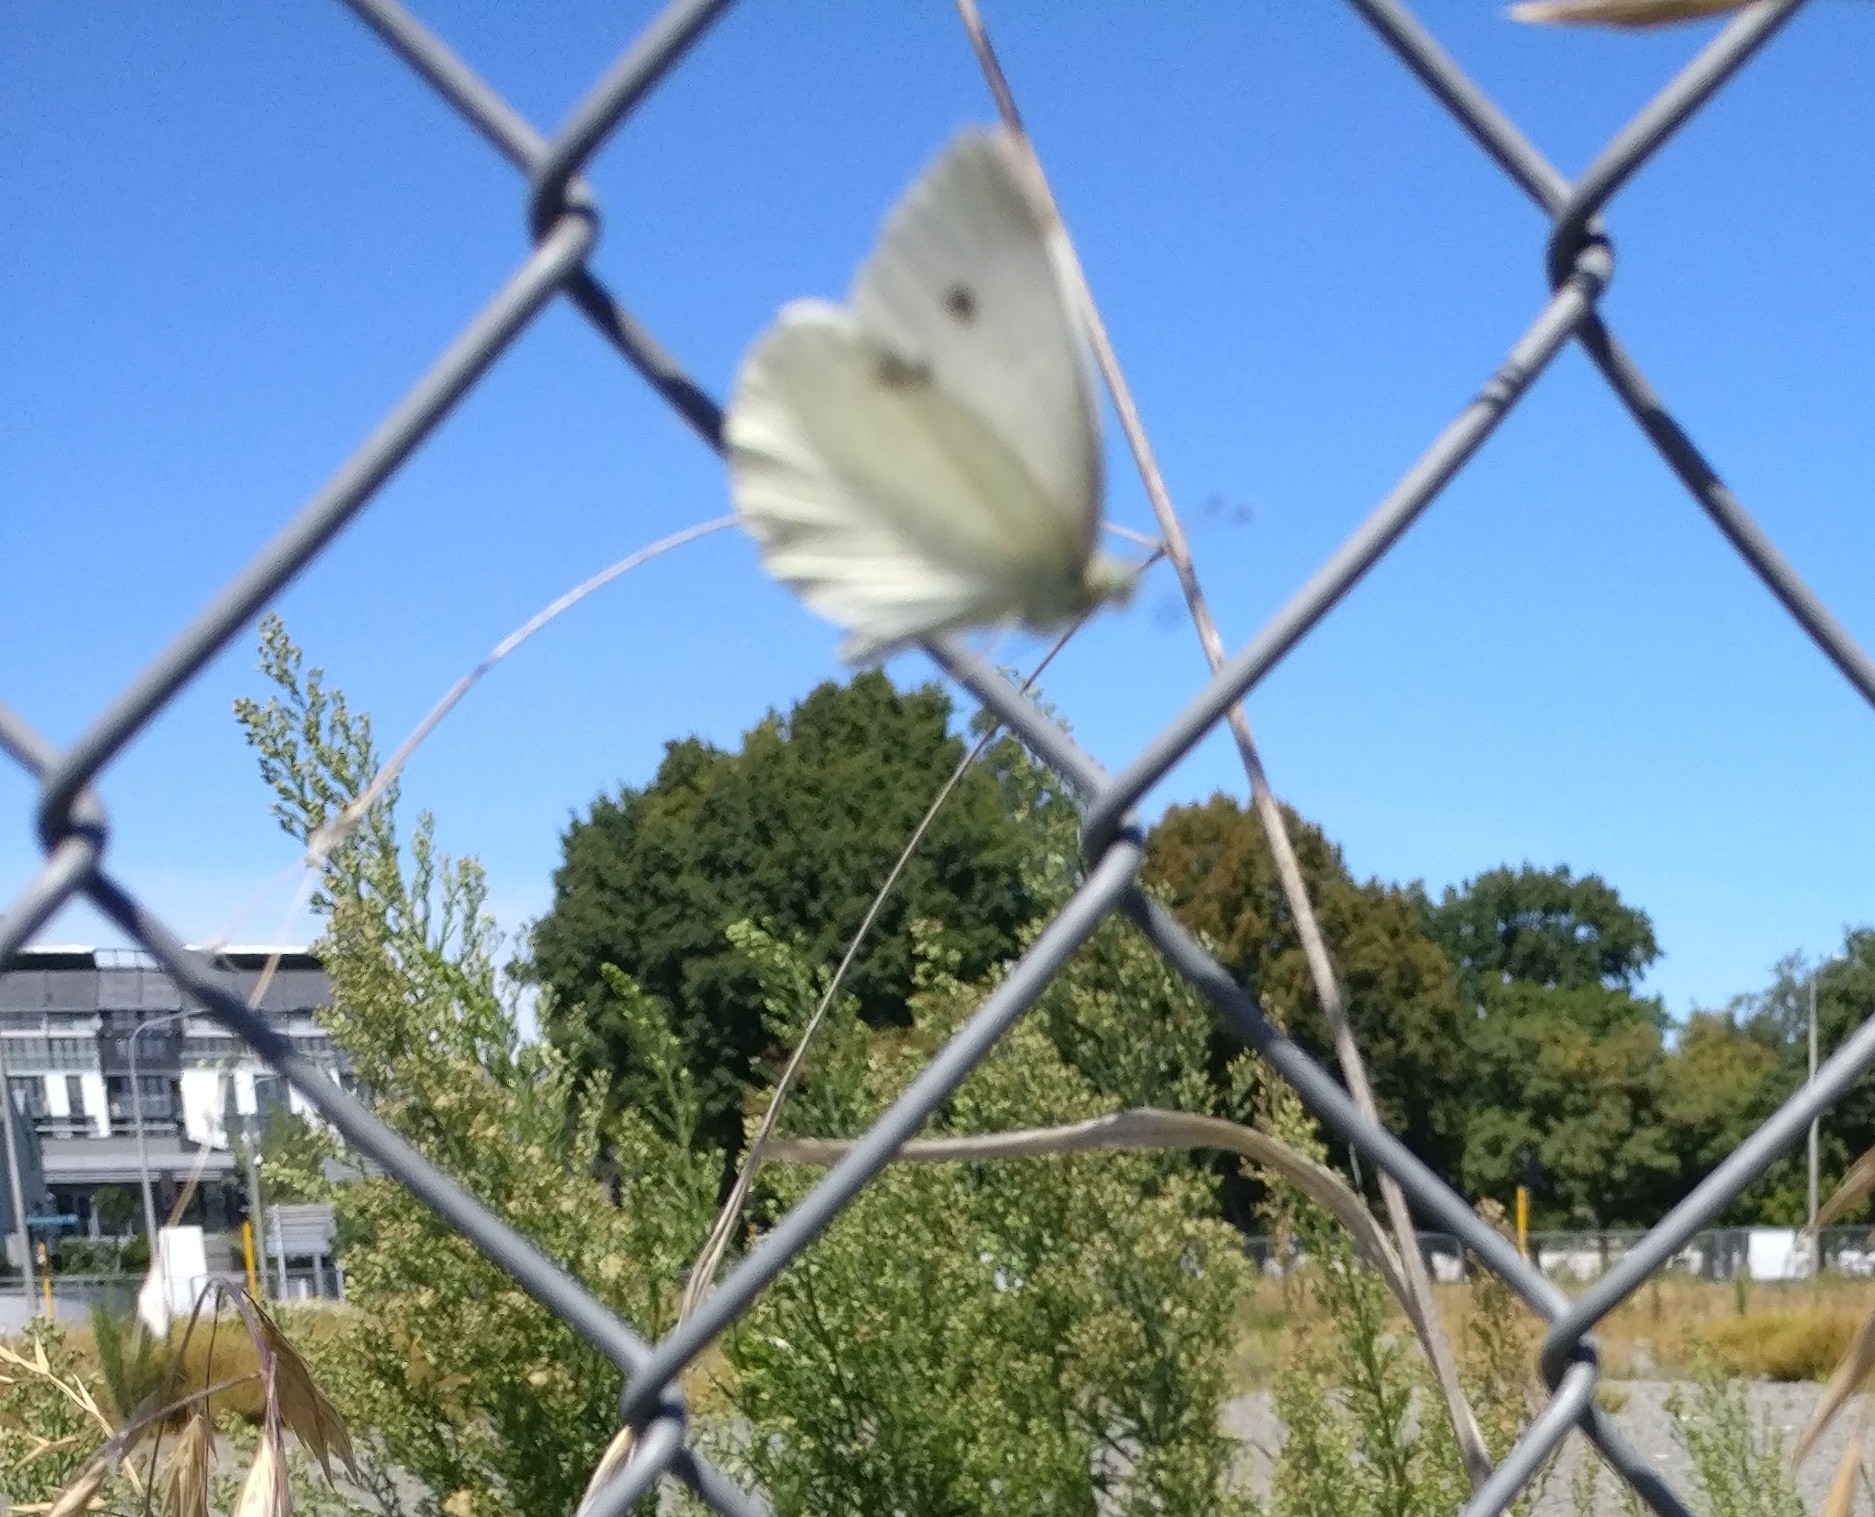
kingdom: Animalia
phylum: Arthropoda
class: Insecta
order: Lepidoptera
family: Pieridae
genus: Pieris
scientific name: Pieris rapae
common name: Small white
